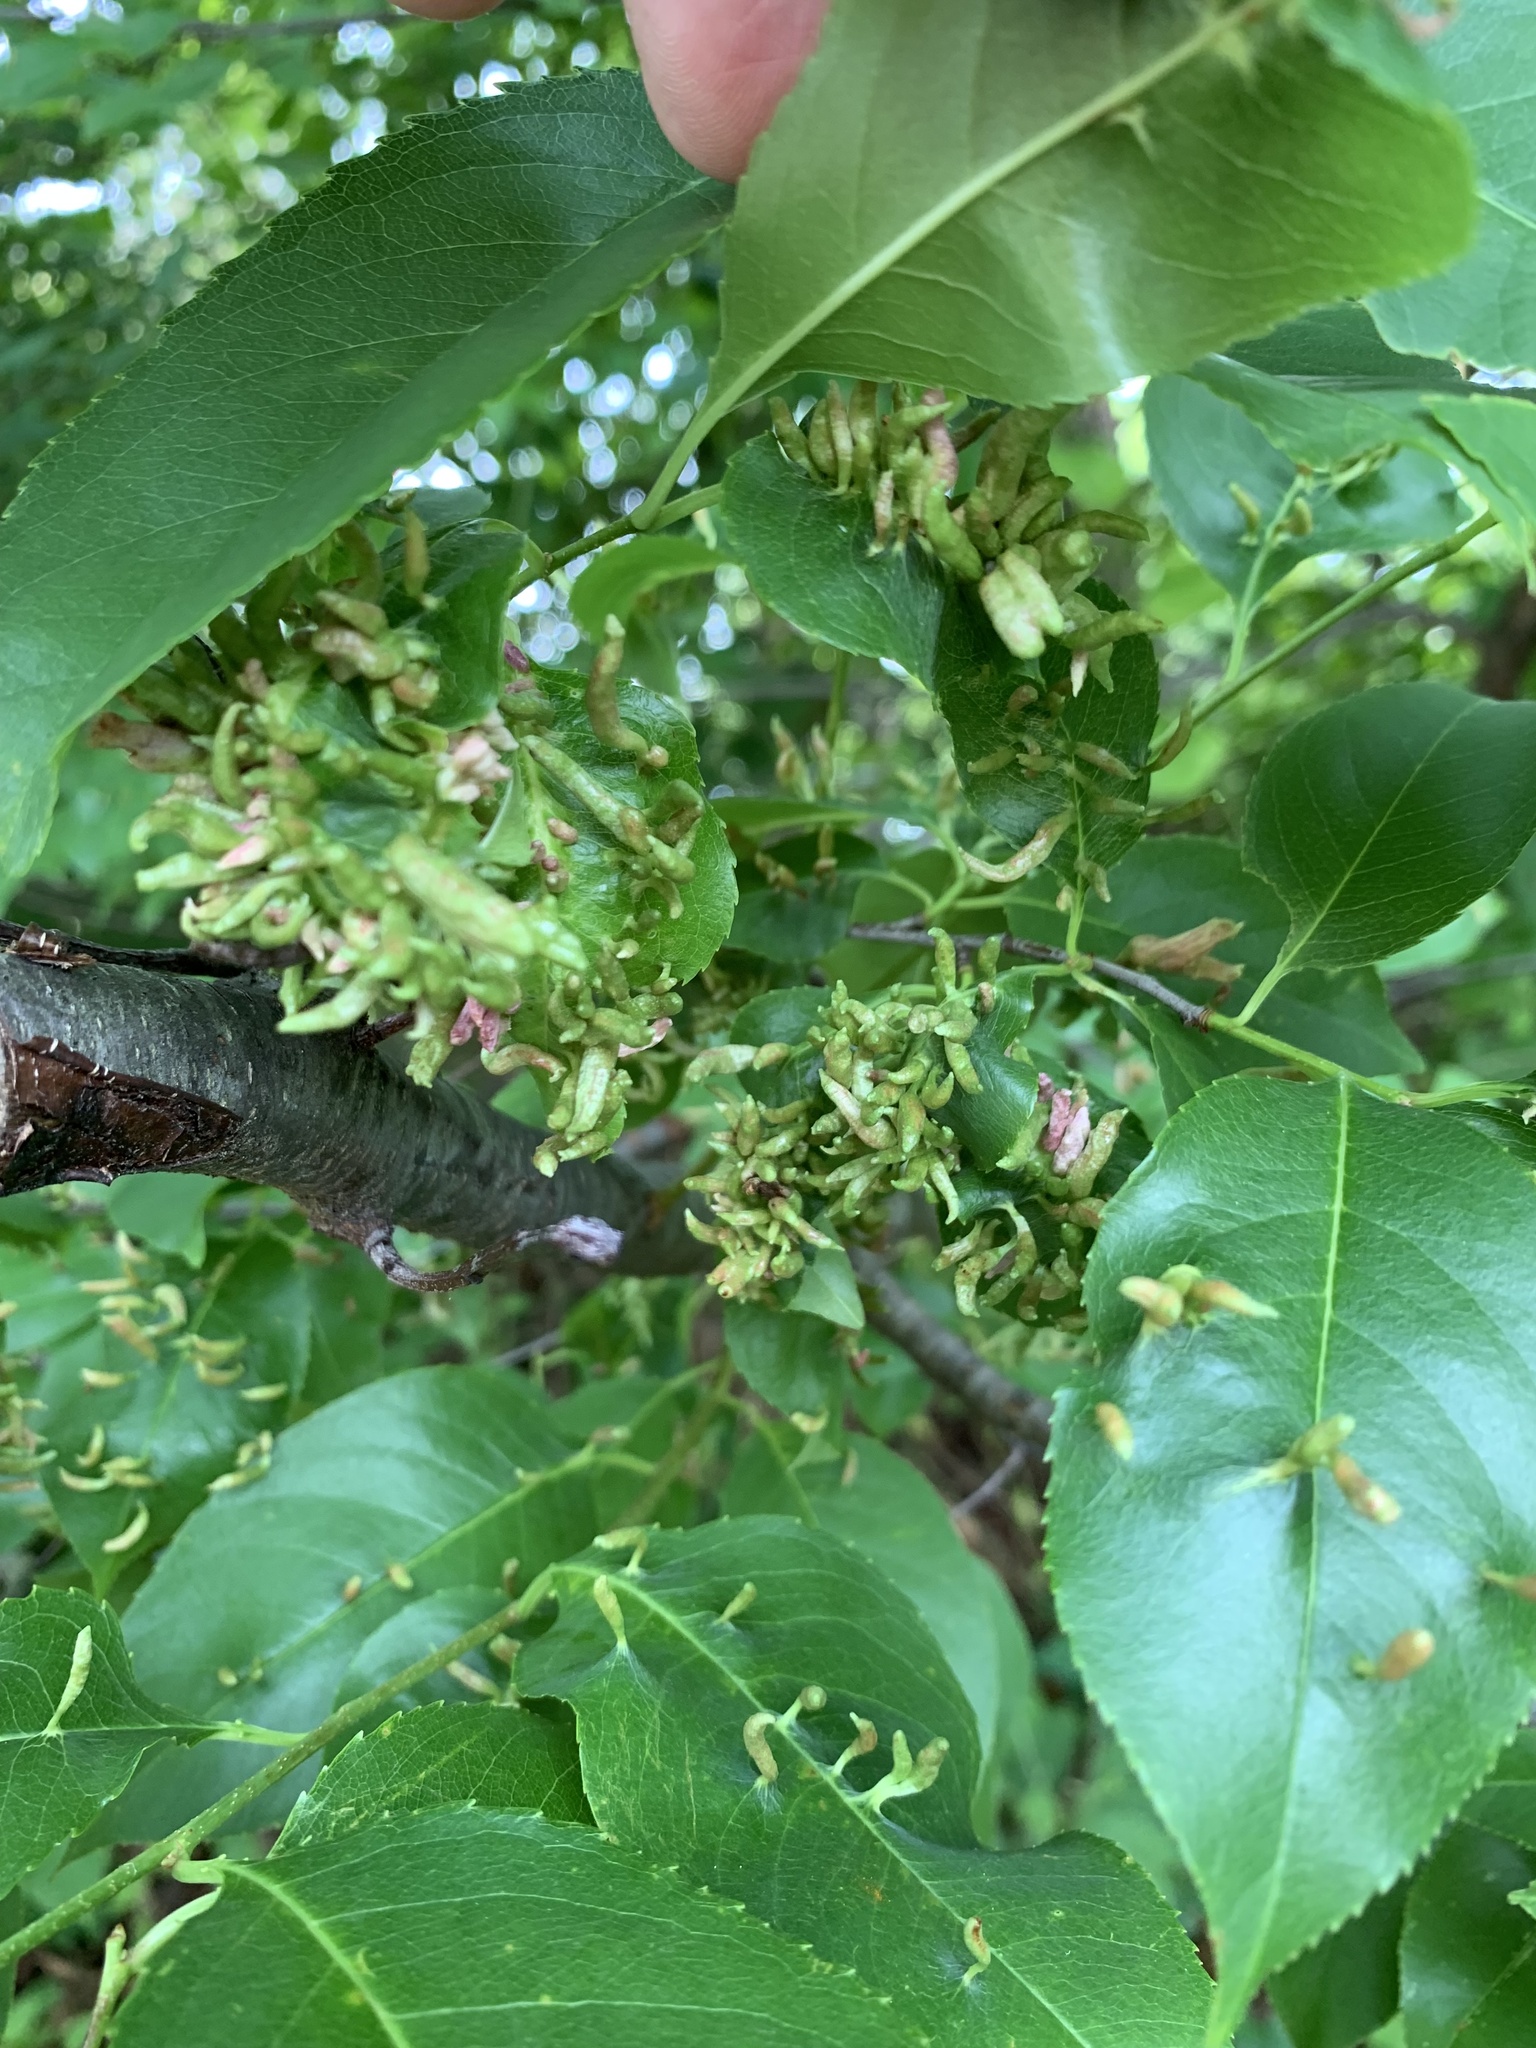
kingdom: Animalia
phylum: Arthropoda
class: Arachnida
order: Trombidiformes
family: Eriophyidae
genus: Eriophyes
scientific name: Eriophyes
